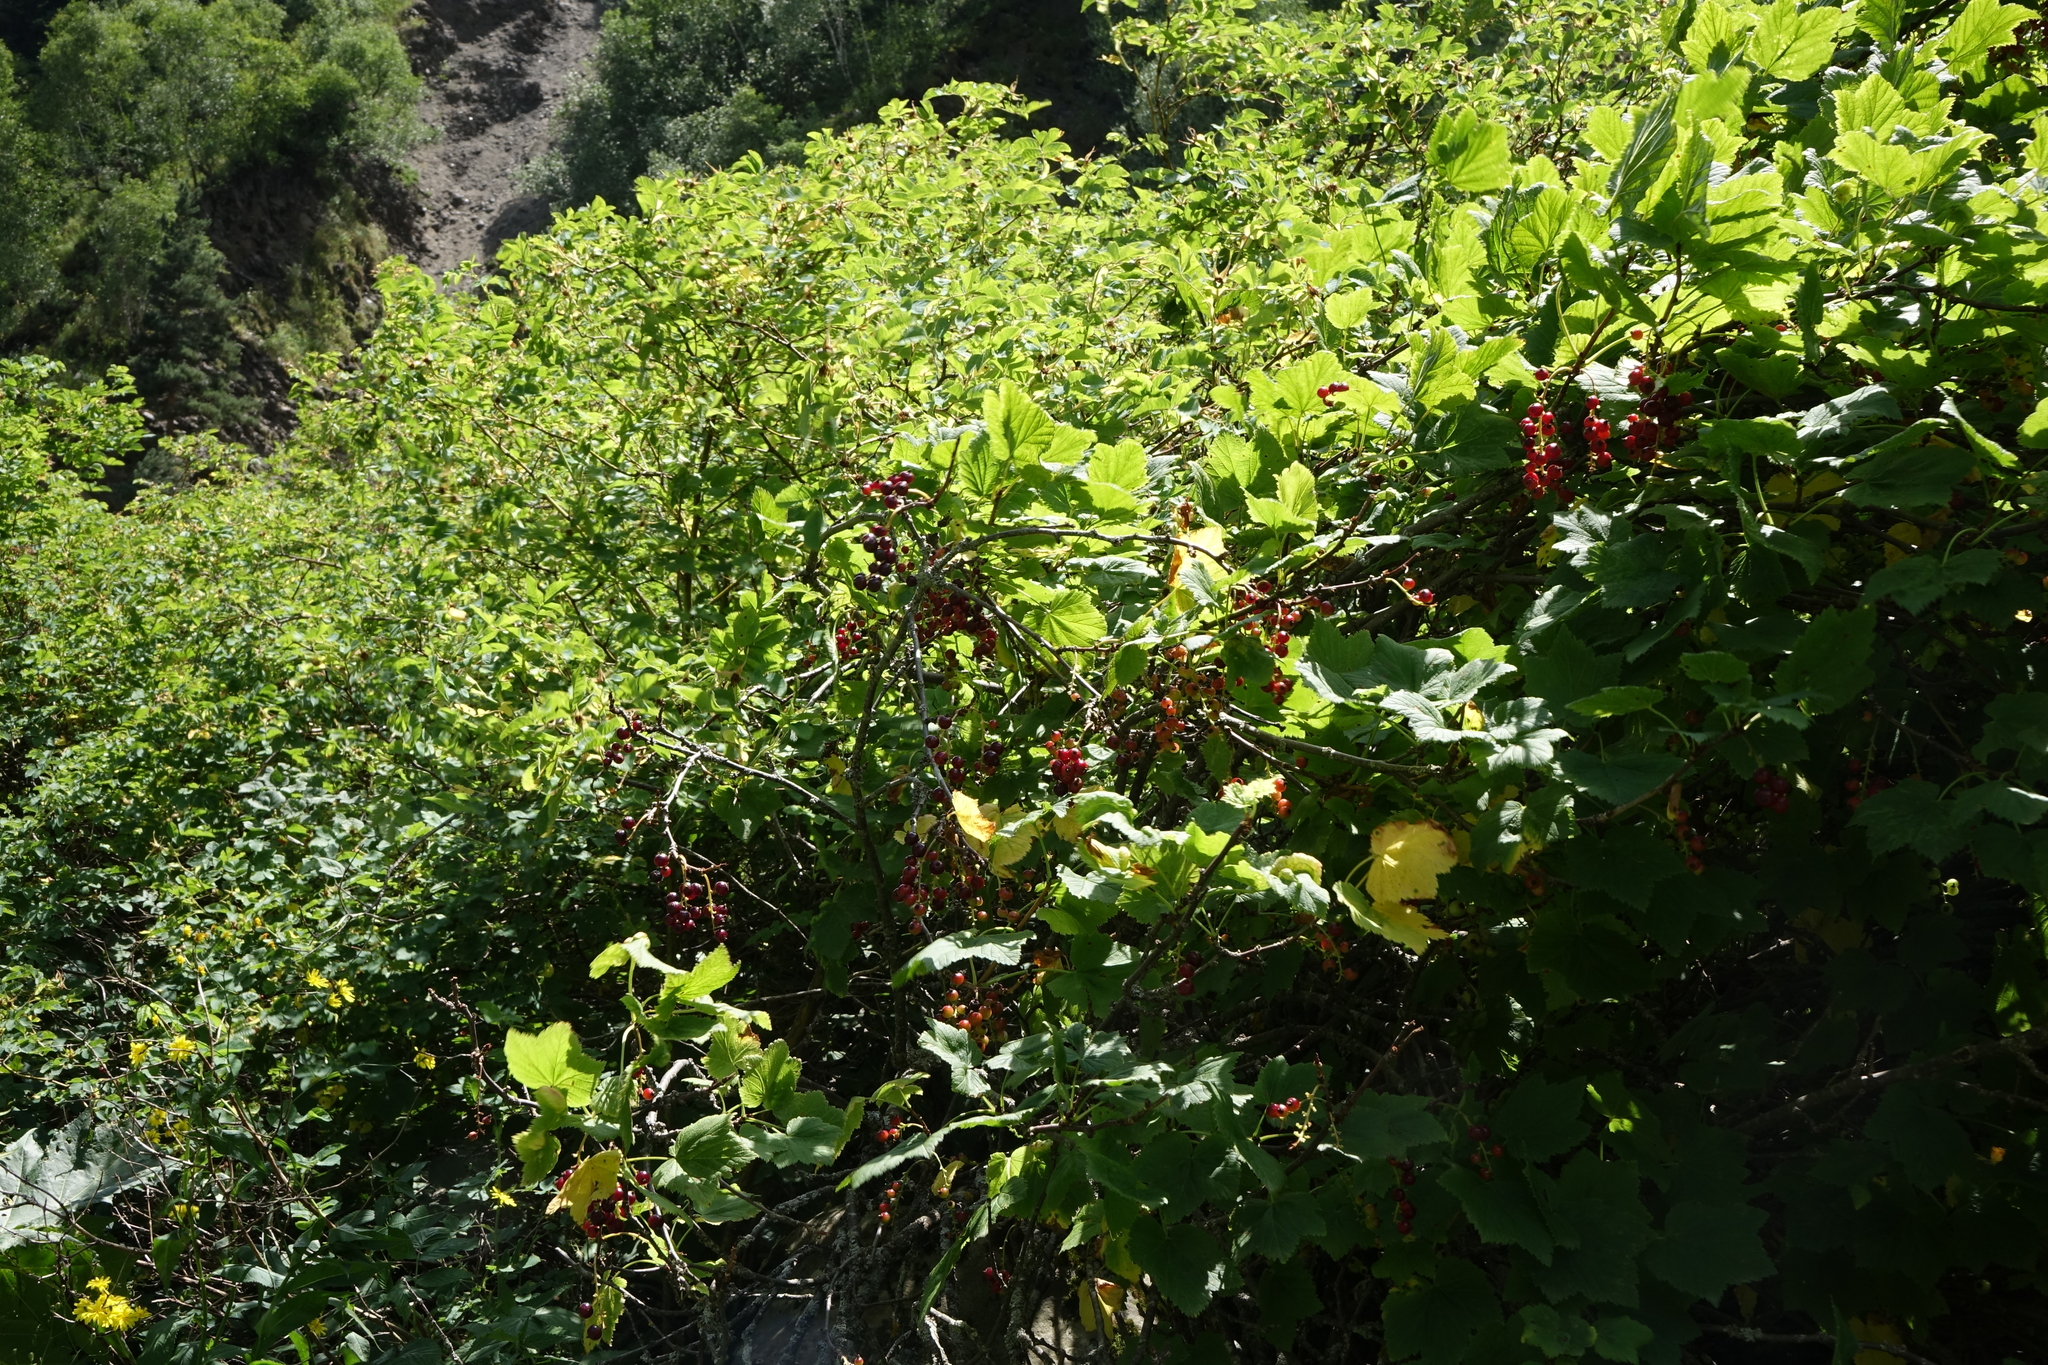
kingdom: Plantae
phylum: Tracheophyta
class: Magnoliopsida
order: Saxifragales
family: Grossulariaceae
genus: Ribes
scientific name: Ribes biebersteinii
